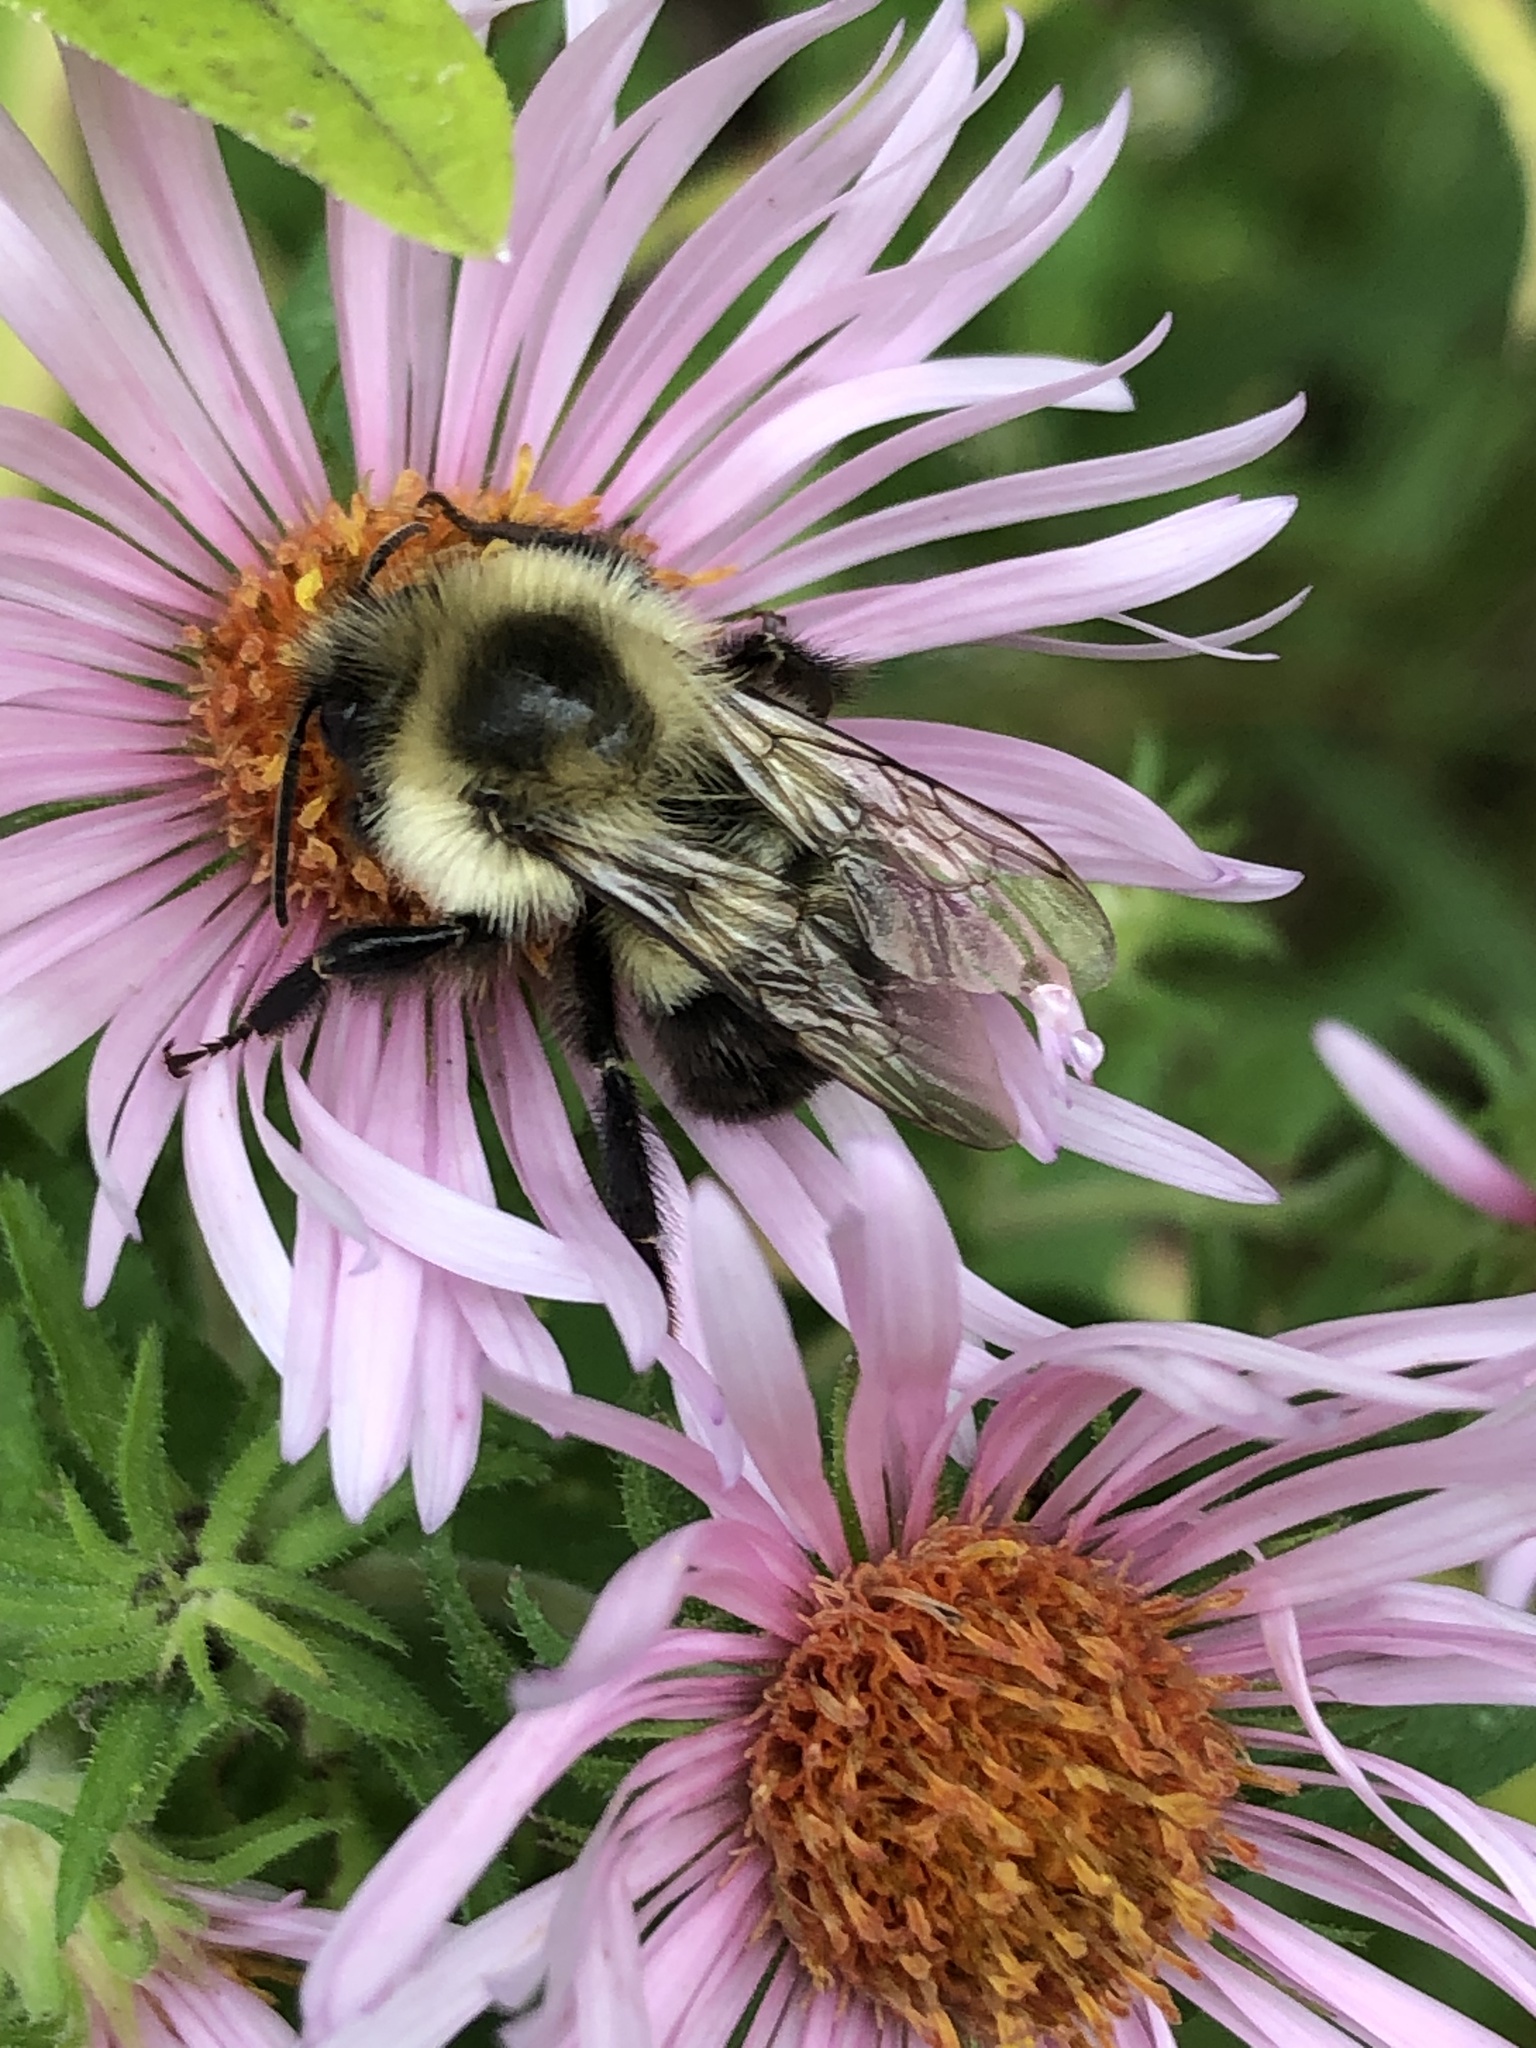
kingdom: Animalia
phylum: Arthropoda
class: Insecta
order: Hymenoptera
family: Apidae
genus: Bombus
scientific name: Bombus impatiens
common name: Common eastern bumble bee
